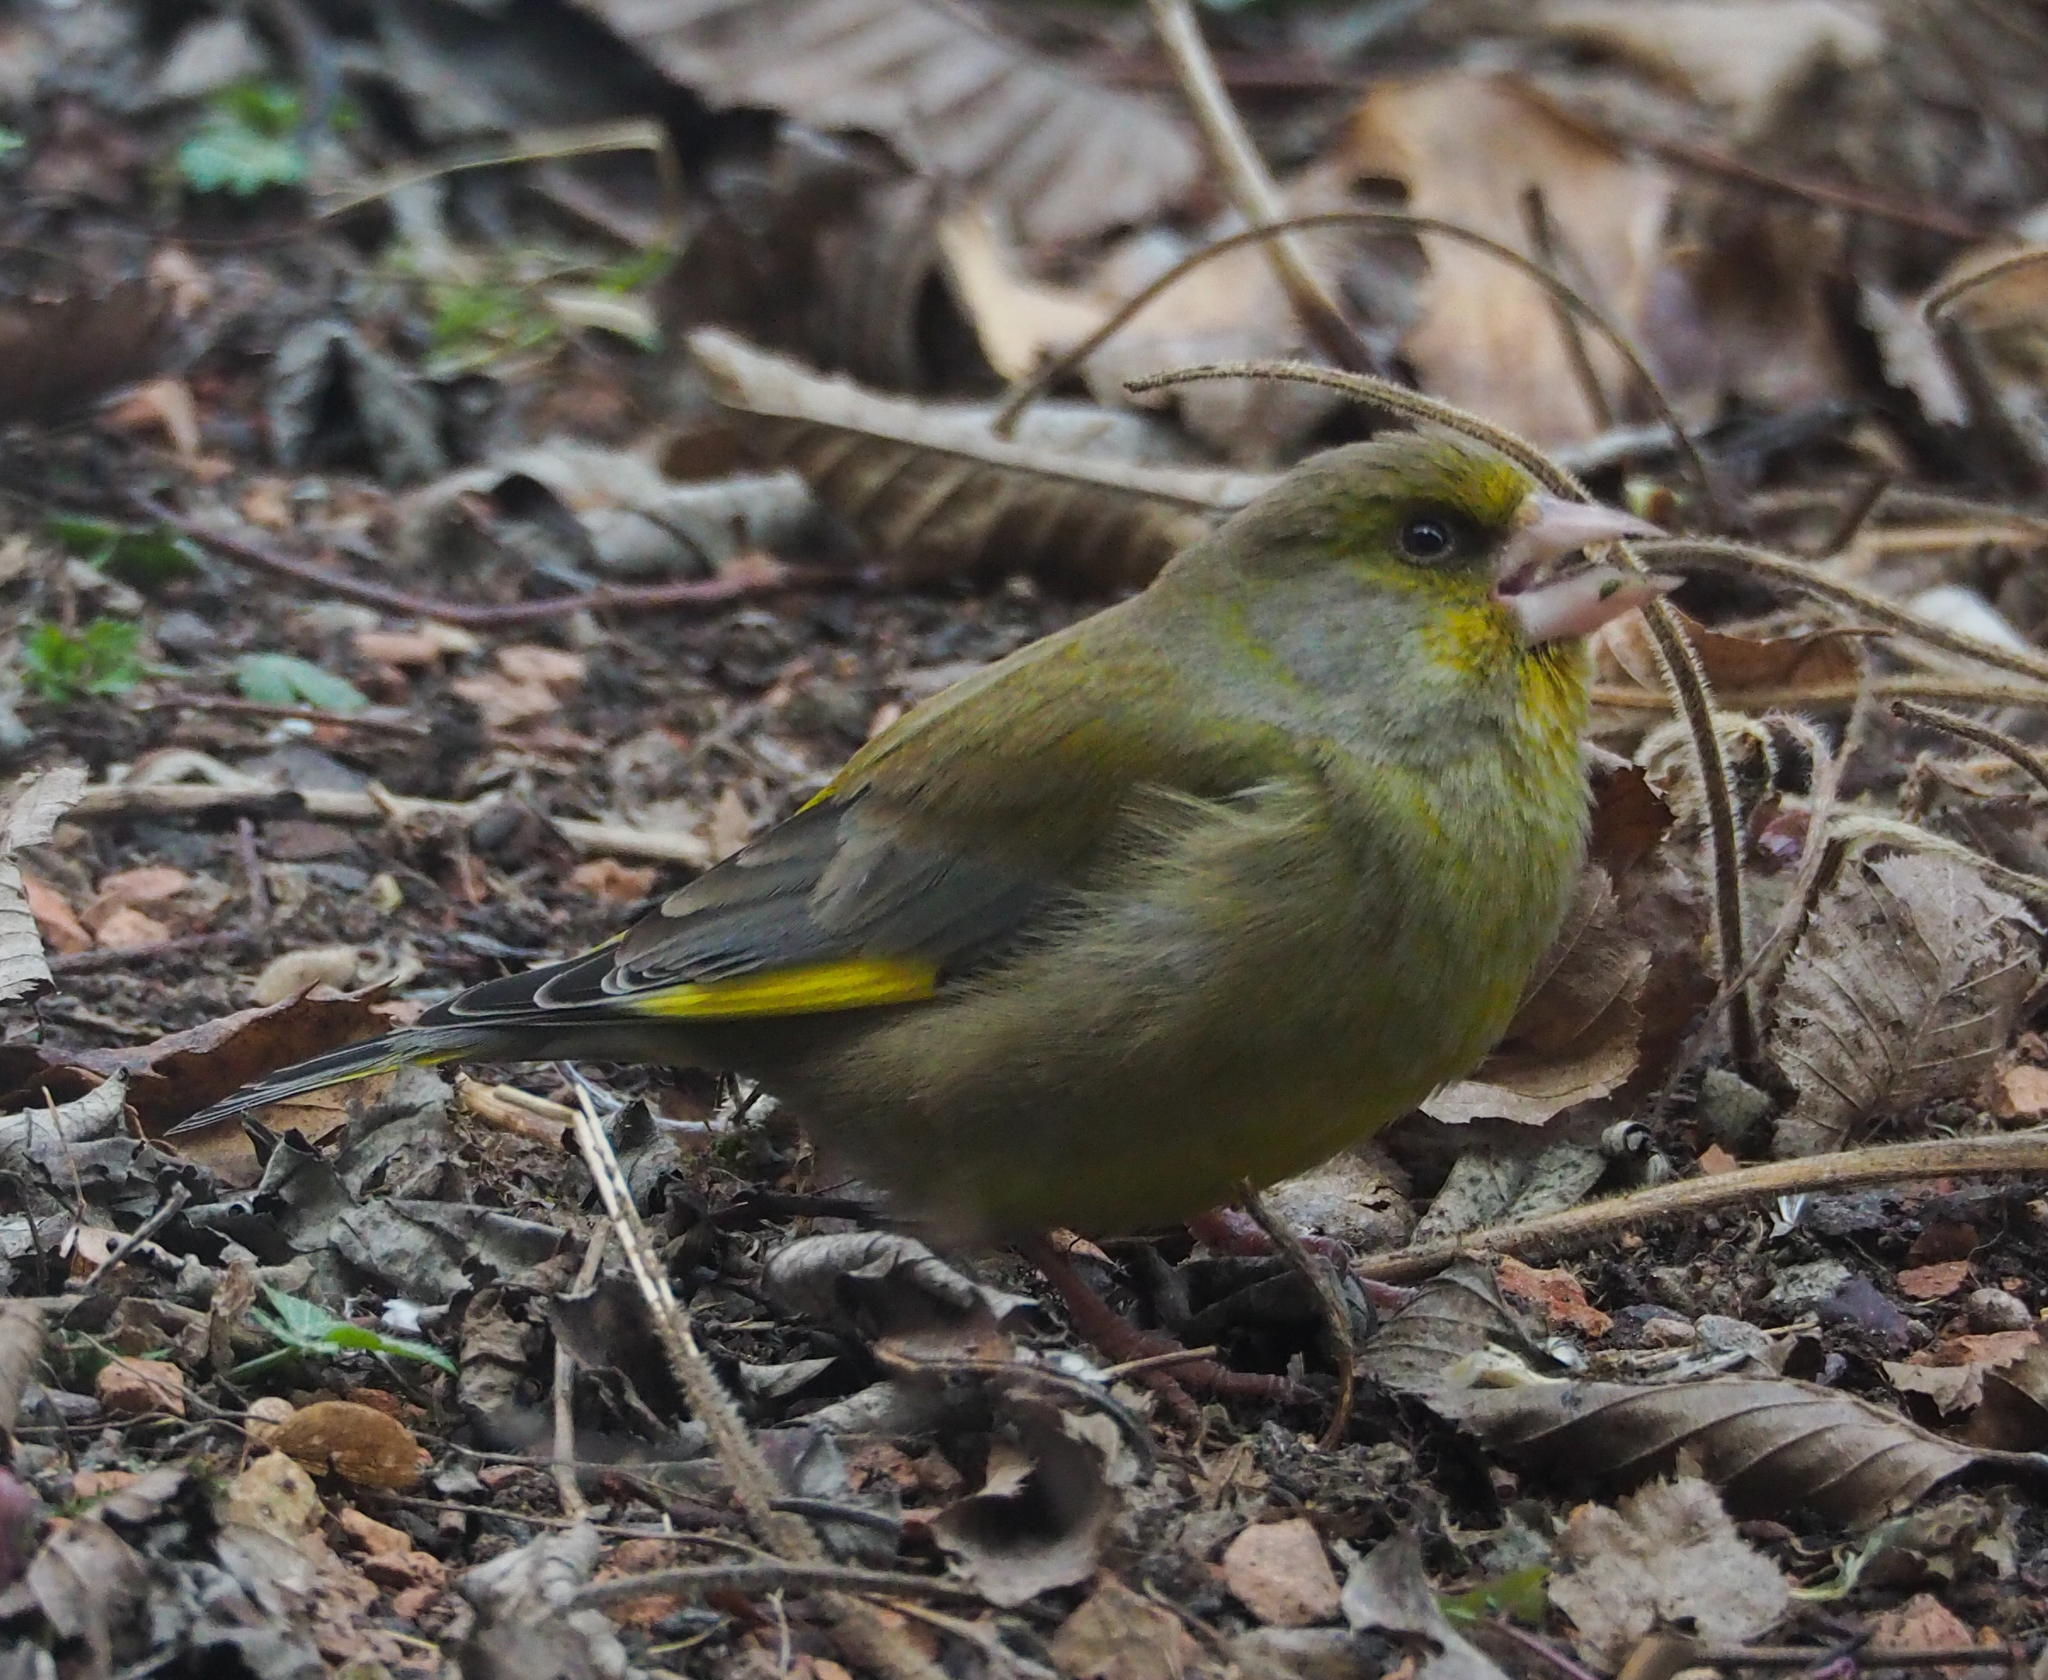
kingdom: Plantae
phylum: Tracheophyta
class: Liliopsida
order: Poales
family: Poaceae
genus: Chloris
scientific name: Chloris chloris
